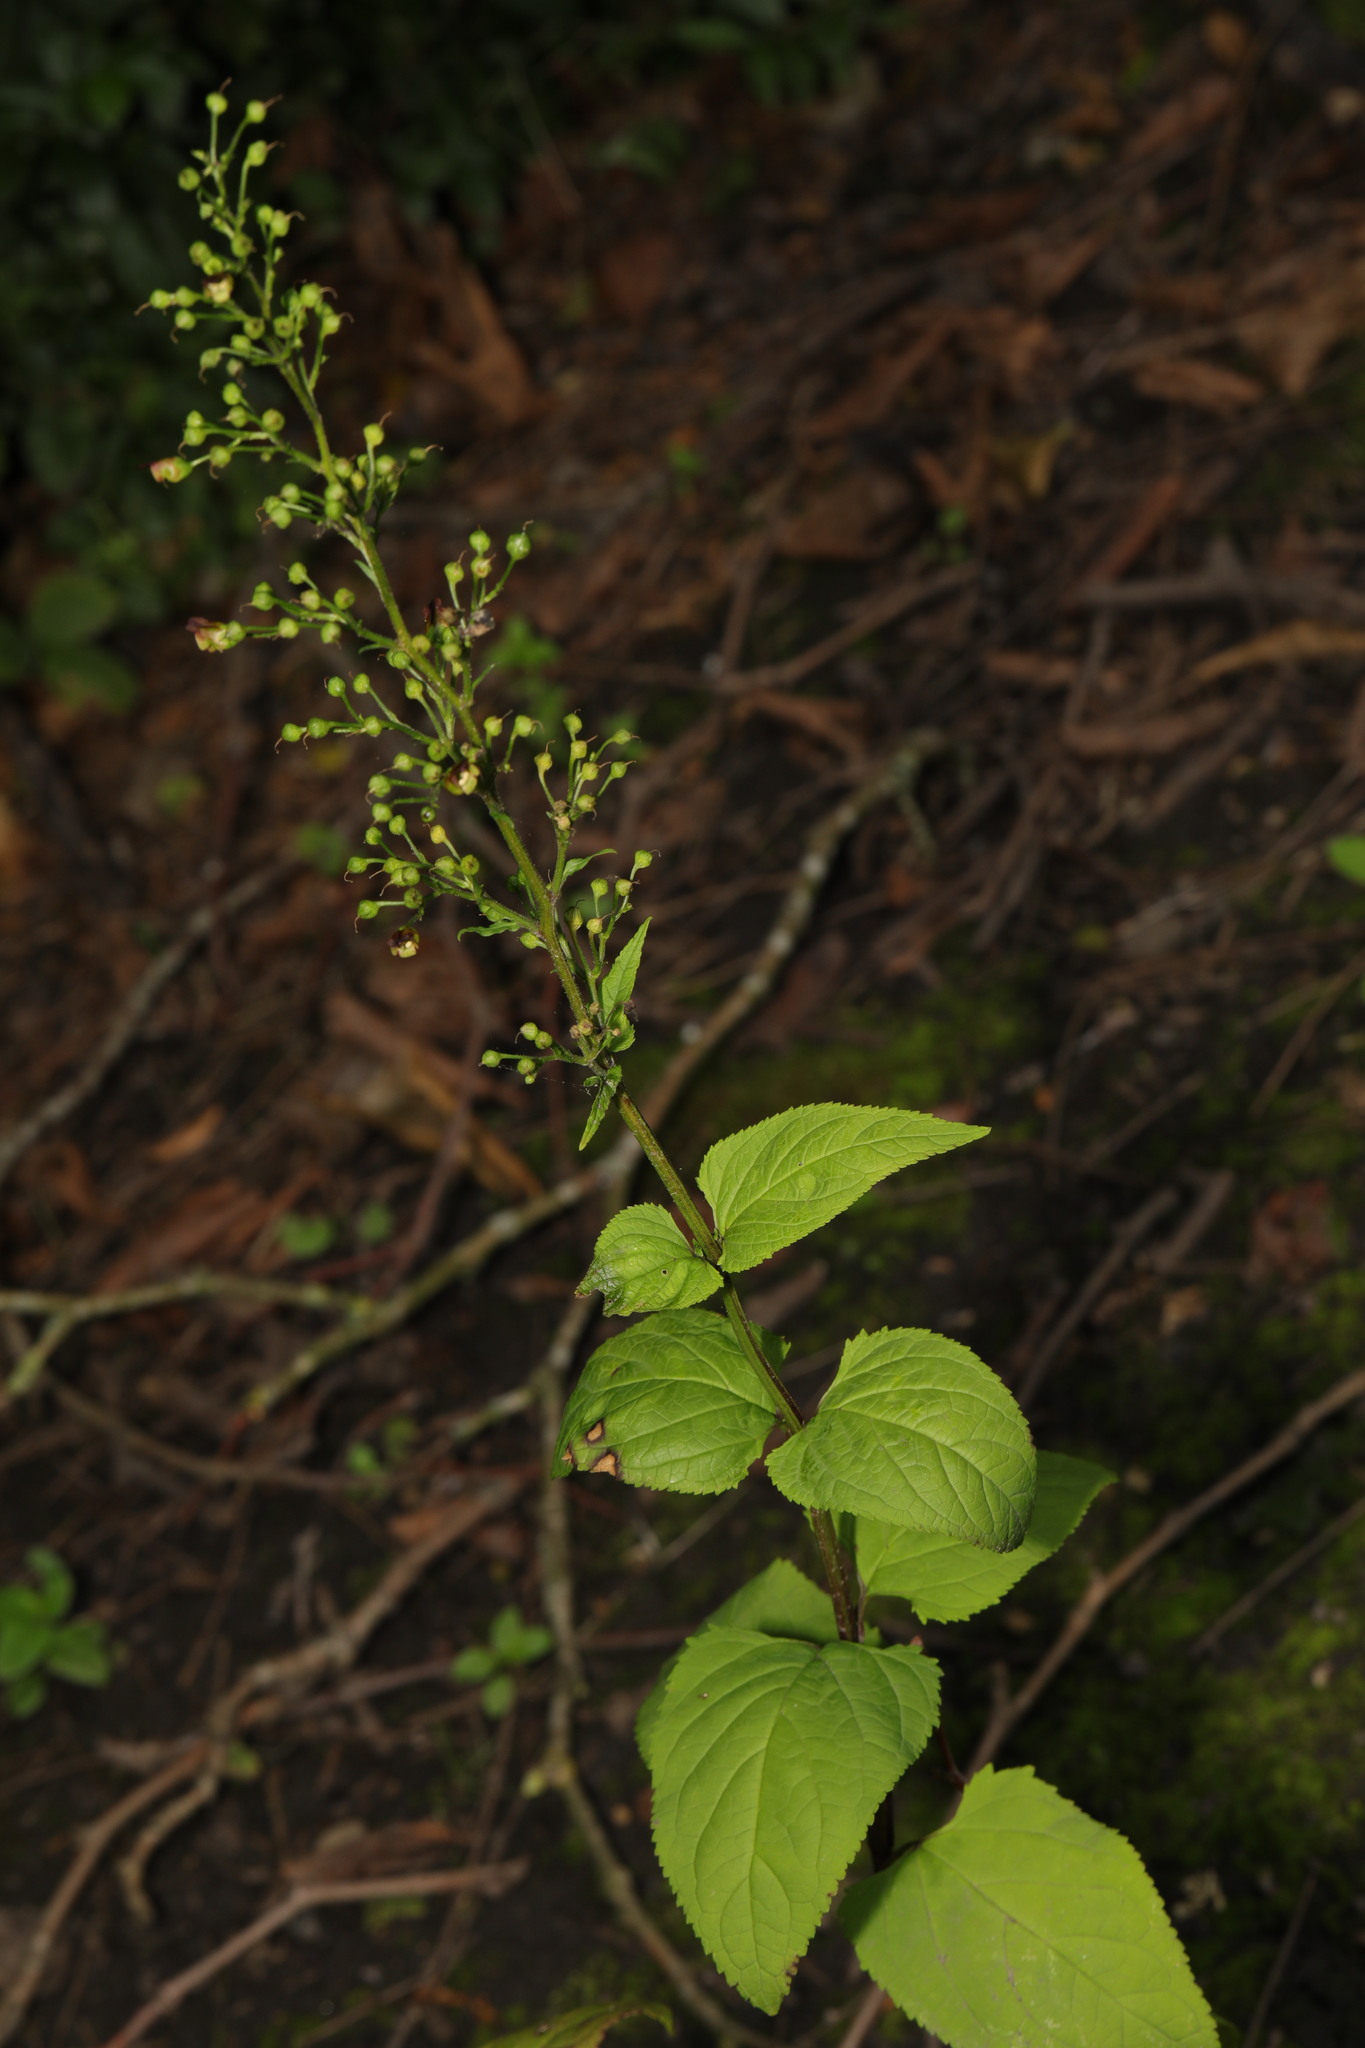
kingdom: Plantae
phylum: Tracheophyta
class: Magnoliopsida
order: Lamiales
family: Scrophulariaceae
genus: Scrophularia
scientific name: Scrophularia nodosa
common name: Common figwort
